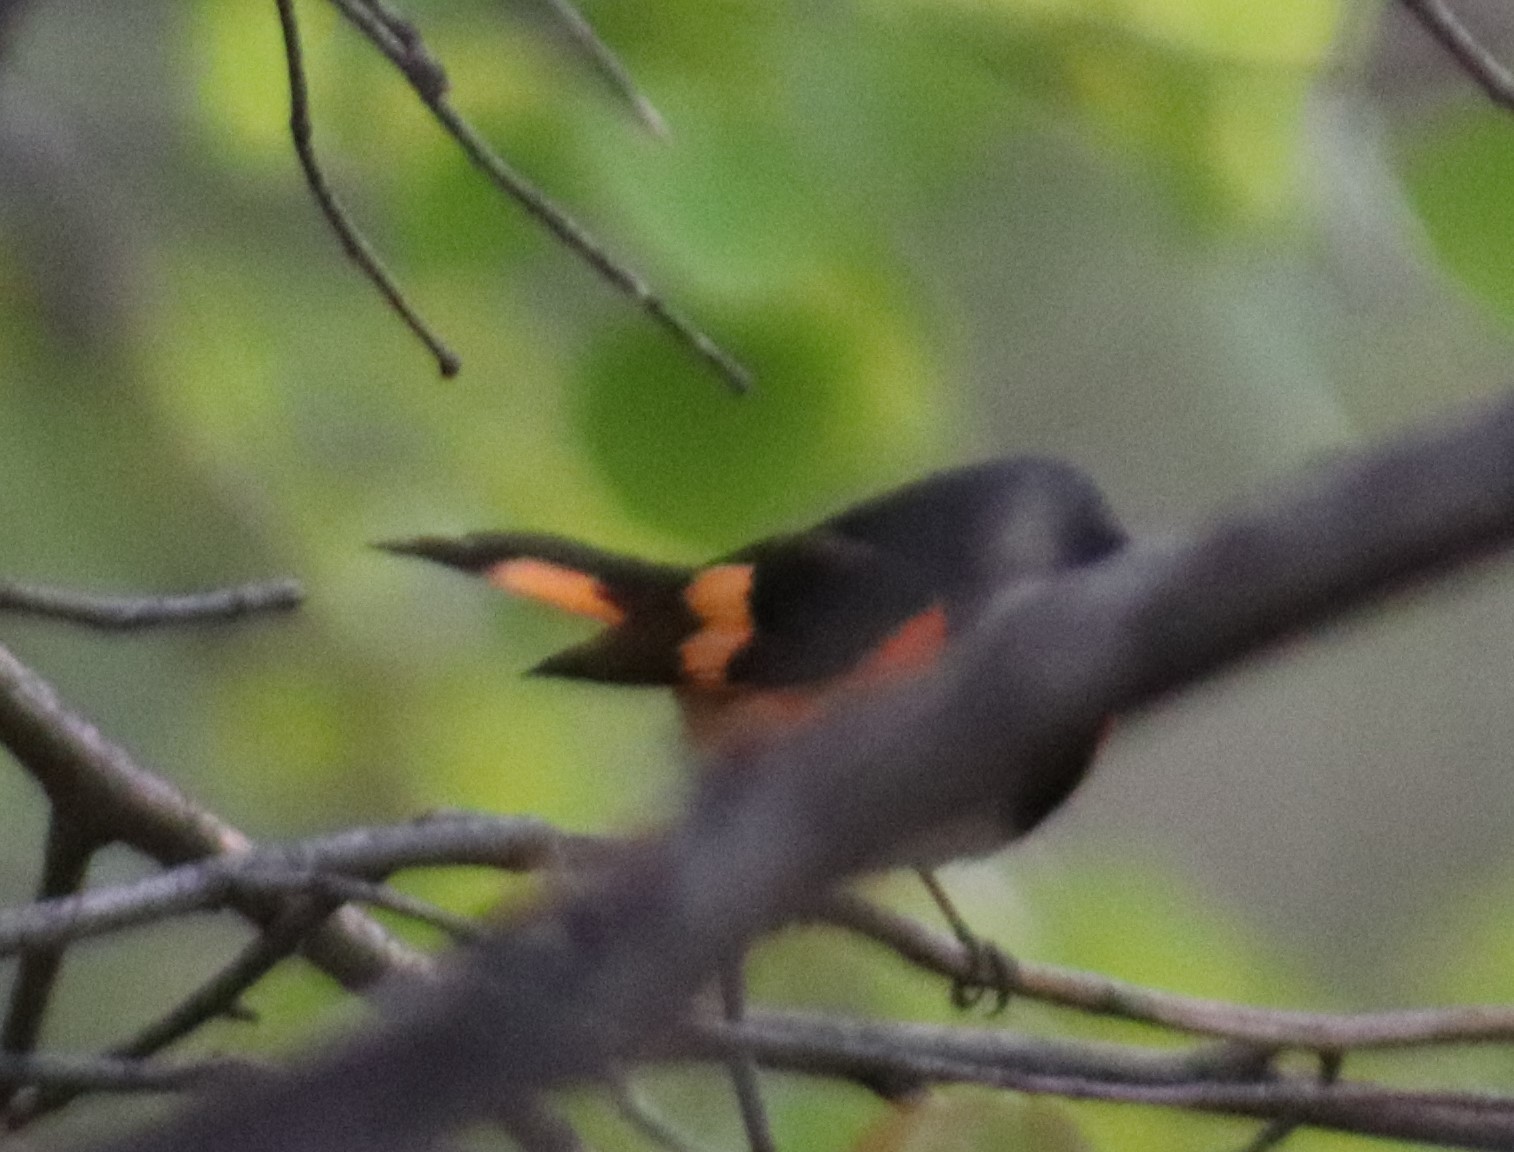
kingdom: Animalia
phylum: Chordata
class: Aves
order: Passeriformes
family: Parulidae
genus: Setophaga
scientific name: Setophaga ruticilla
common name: American redstart
